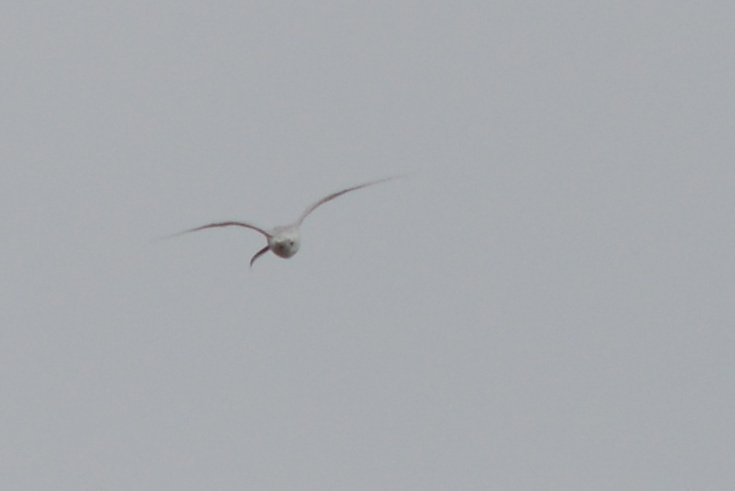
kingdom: Animalia
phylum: Chordata
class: Aves
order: Charadriiformes
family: Laridae
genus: Sterna
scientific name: Sterna striata
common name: White-fronted tern
